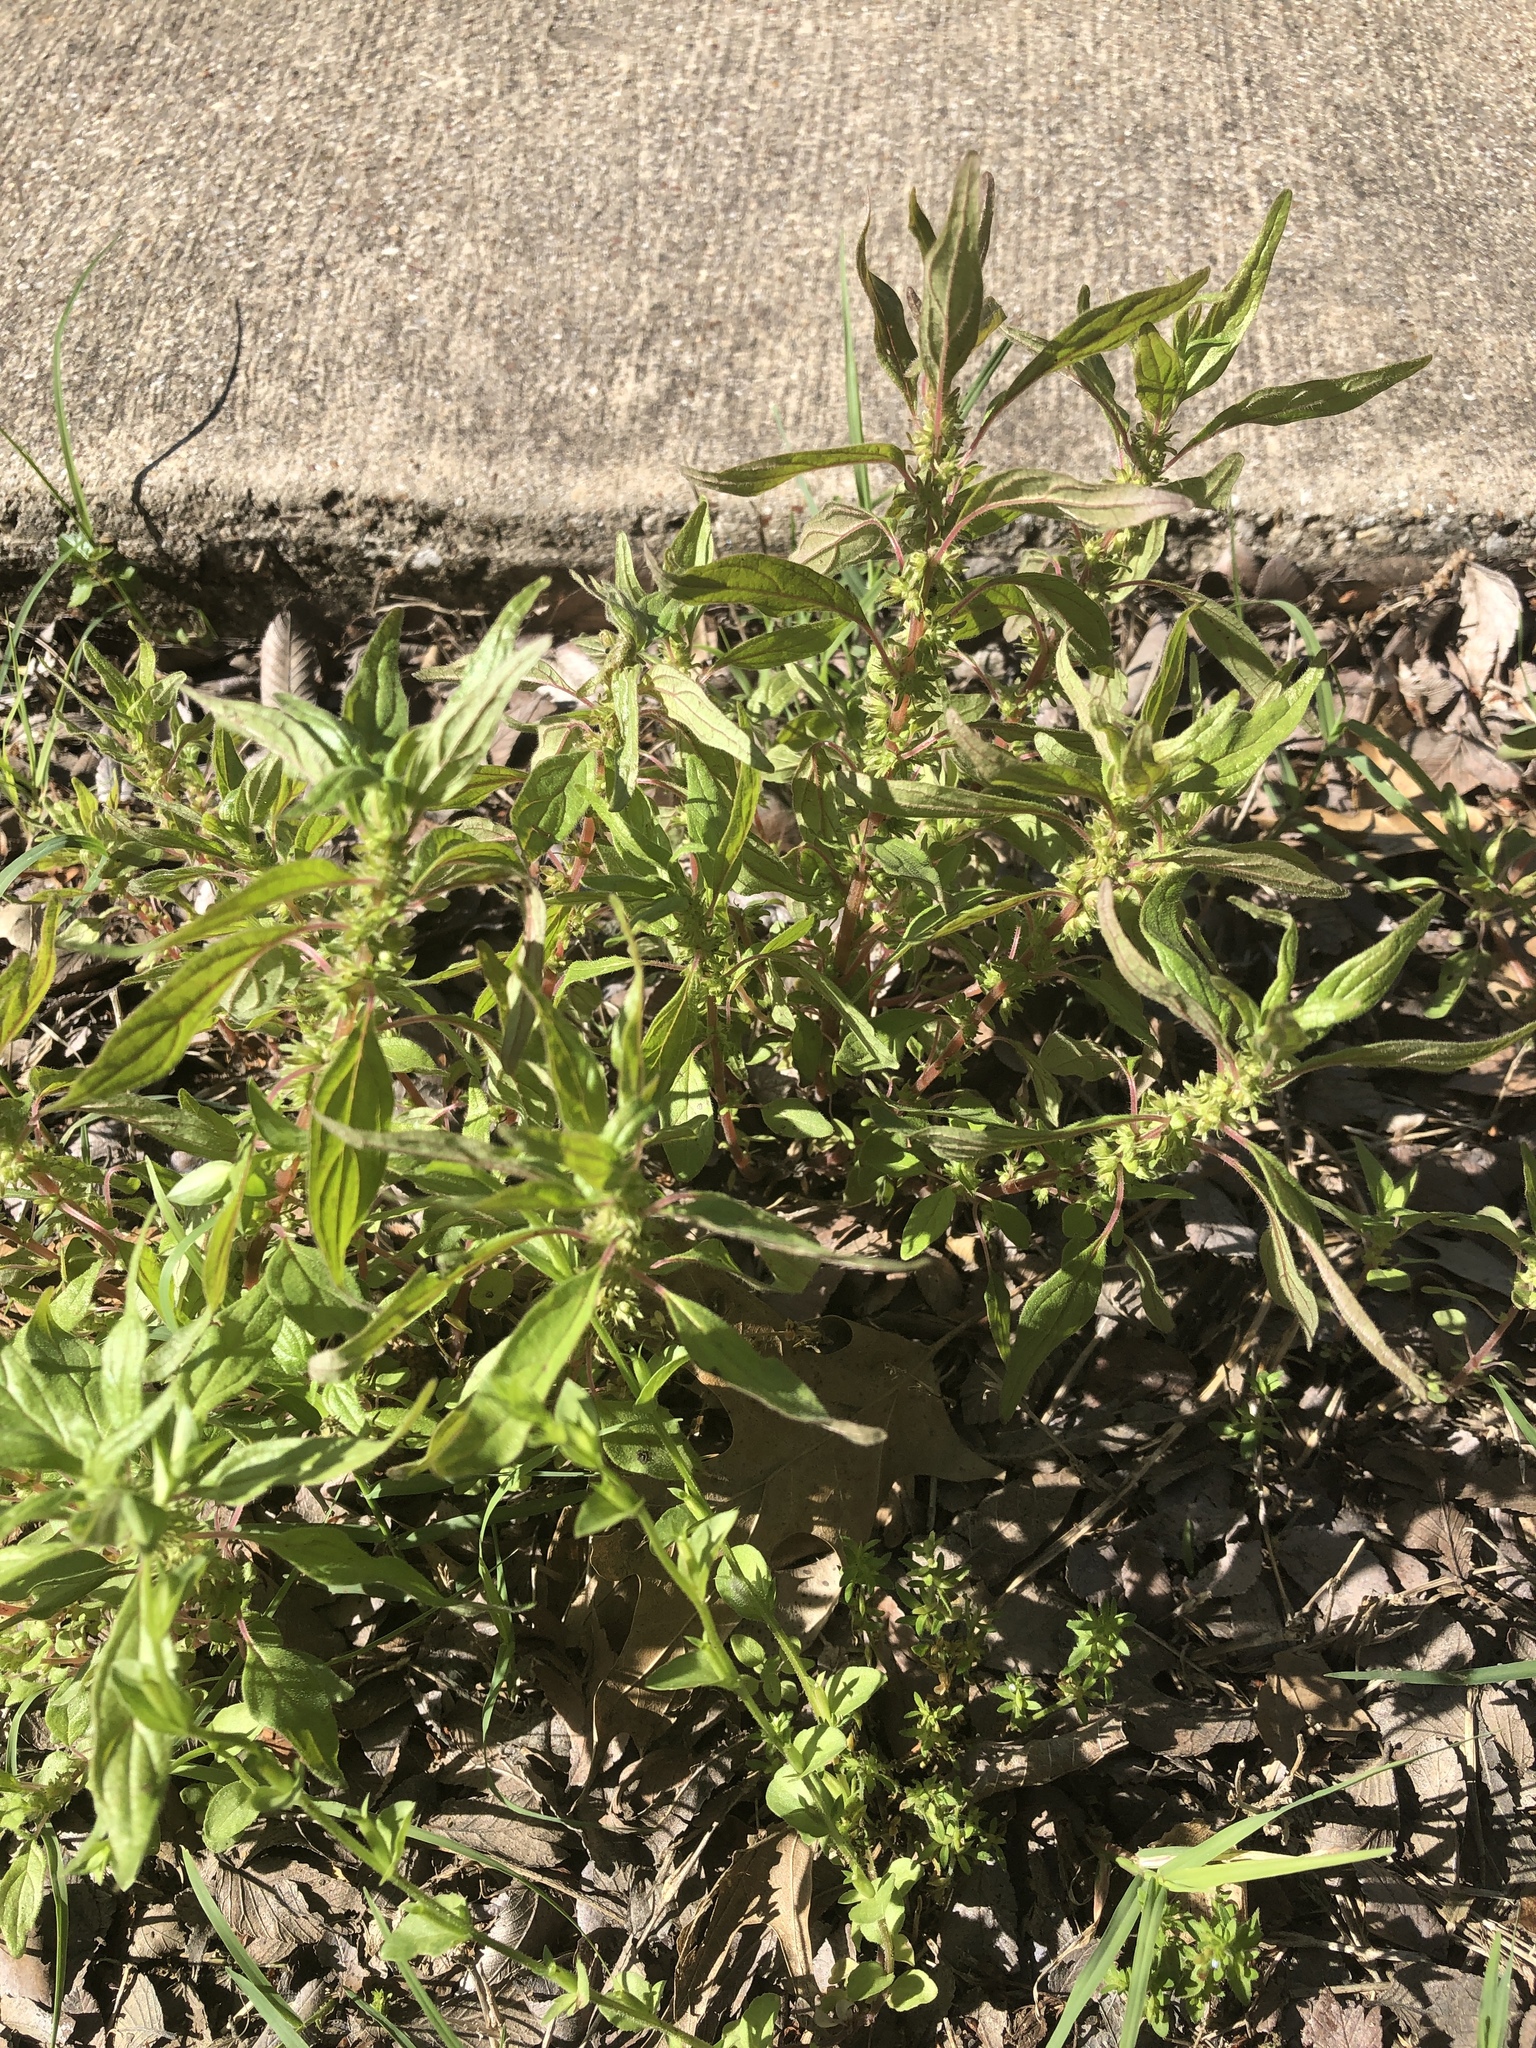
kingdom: Plantae
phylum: Tracheophyta
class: Magnoliopsida
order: Rosales
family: Urticaceae
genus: Parietaria
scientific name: Parietaria pensylvanica
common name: Pennsylvania pellitory
